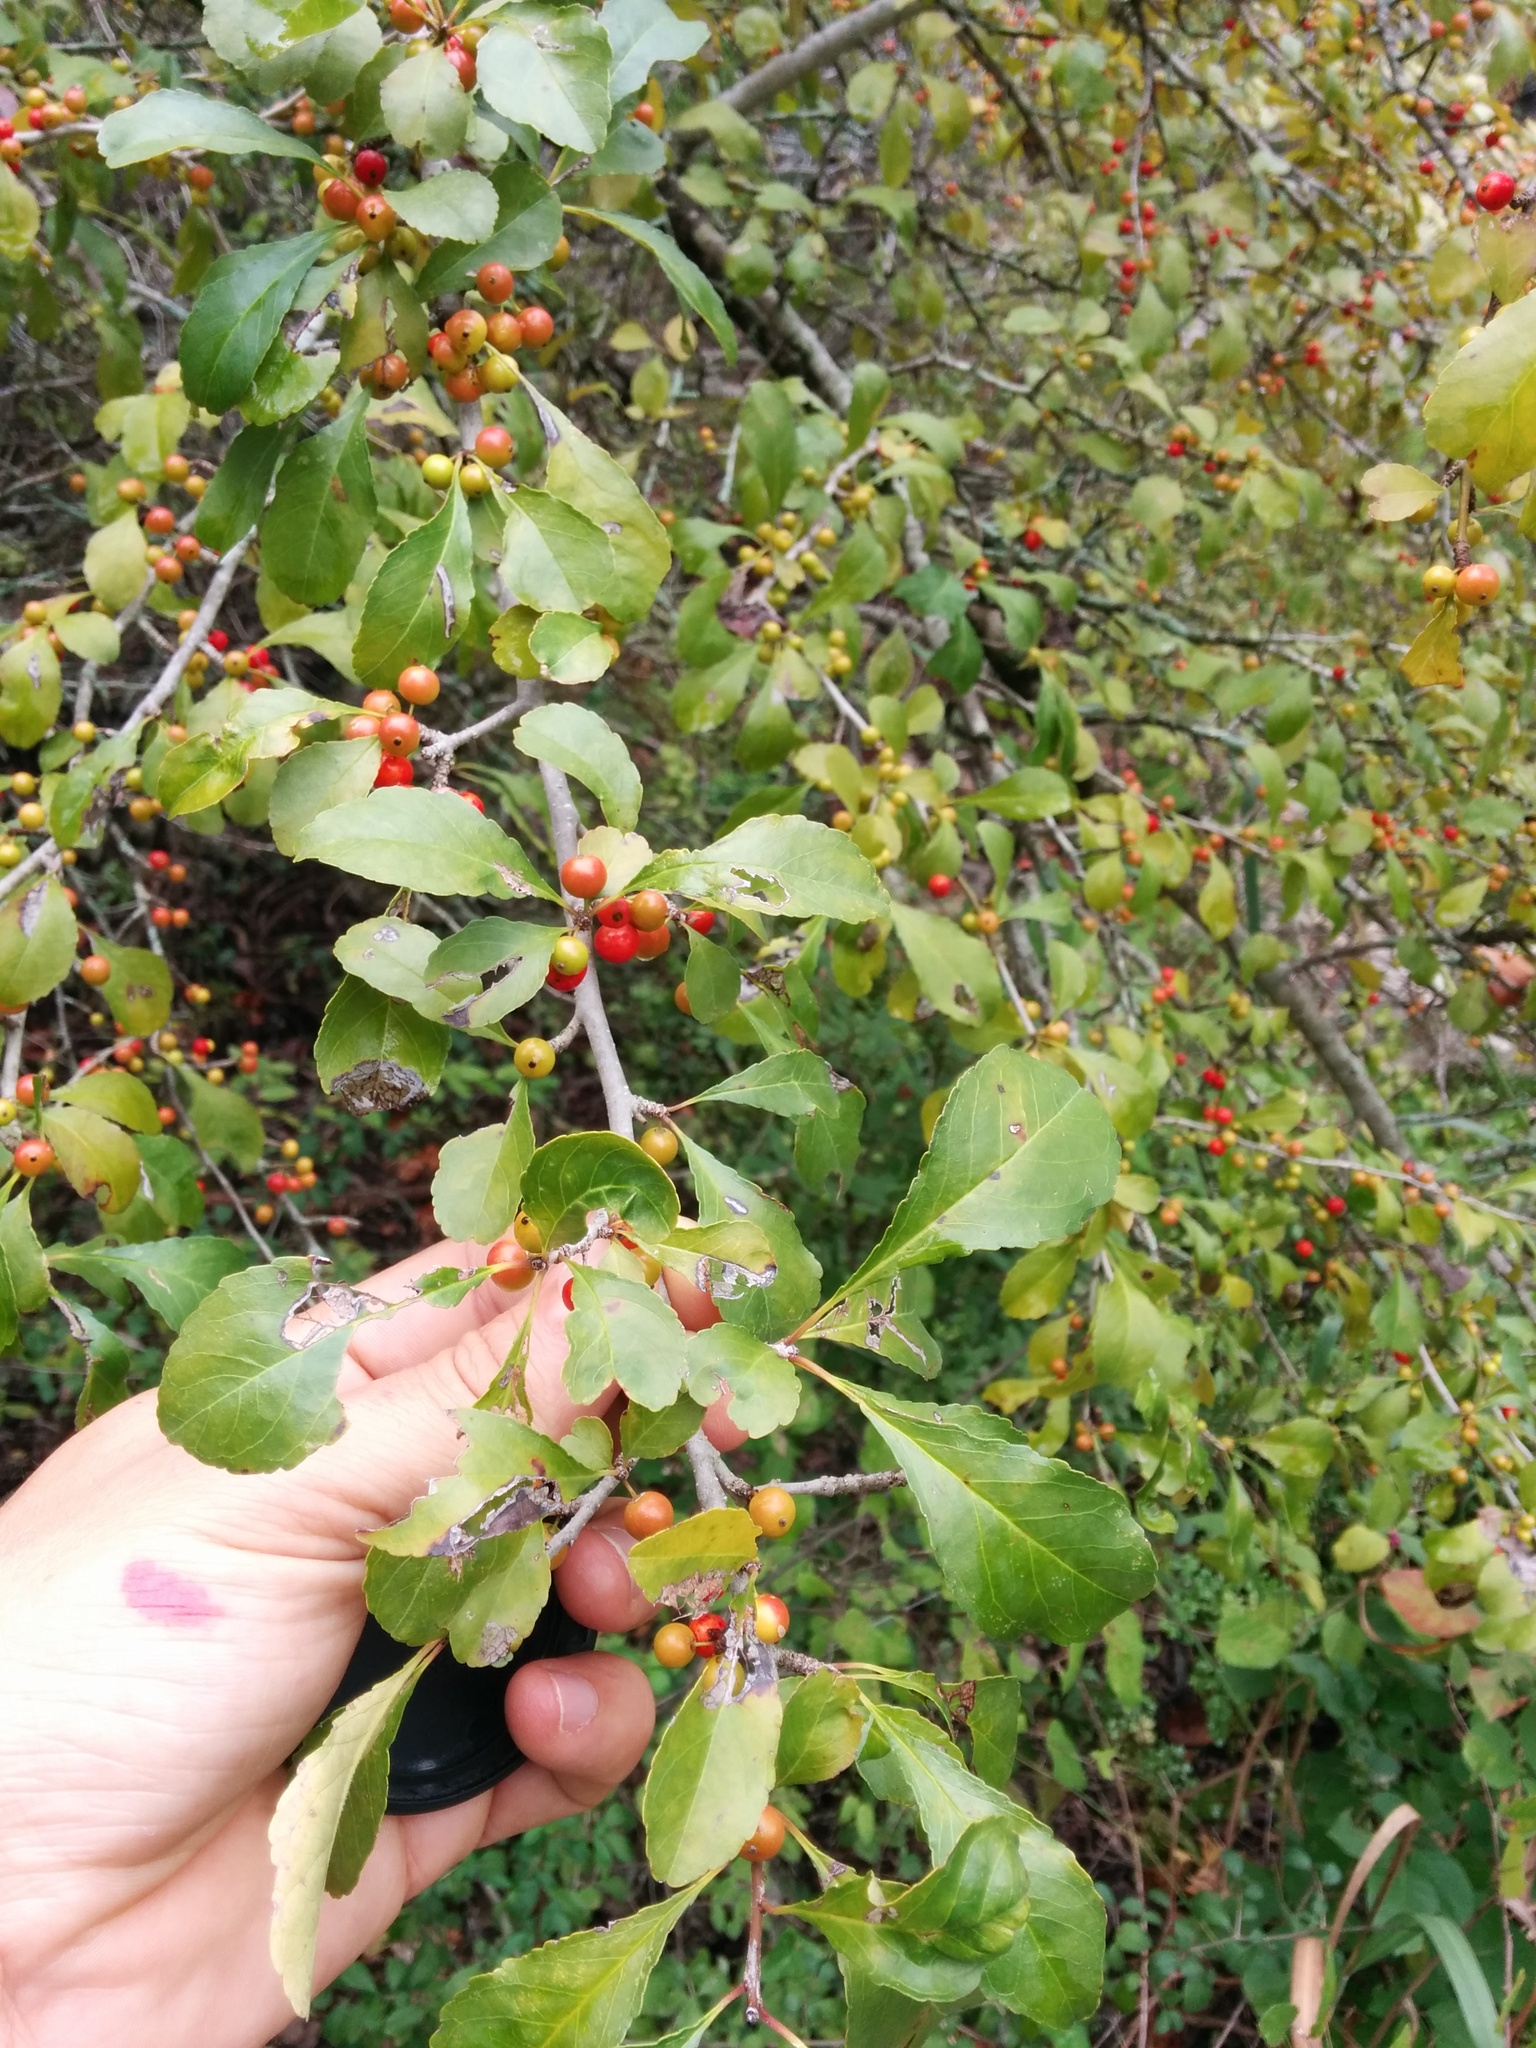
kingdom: Plantae
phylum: Tracheophyta
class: Magnoliopsida
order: Aquifoliales
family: Aquifoliaceae
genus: Ilex
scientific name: Ilex decidua
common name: Possum-haw
